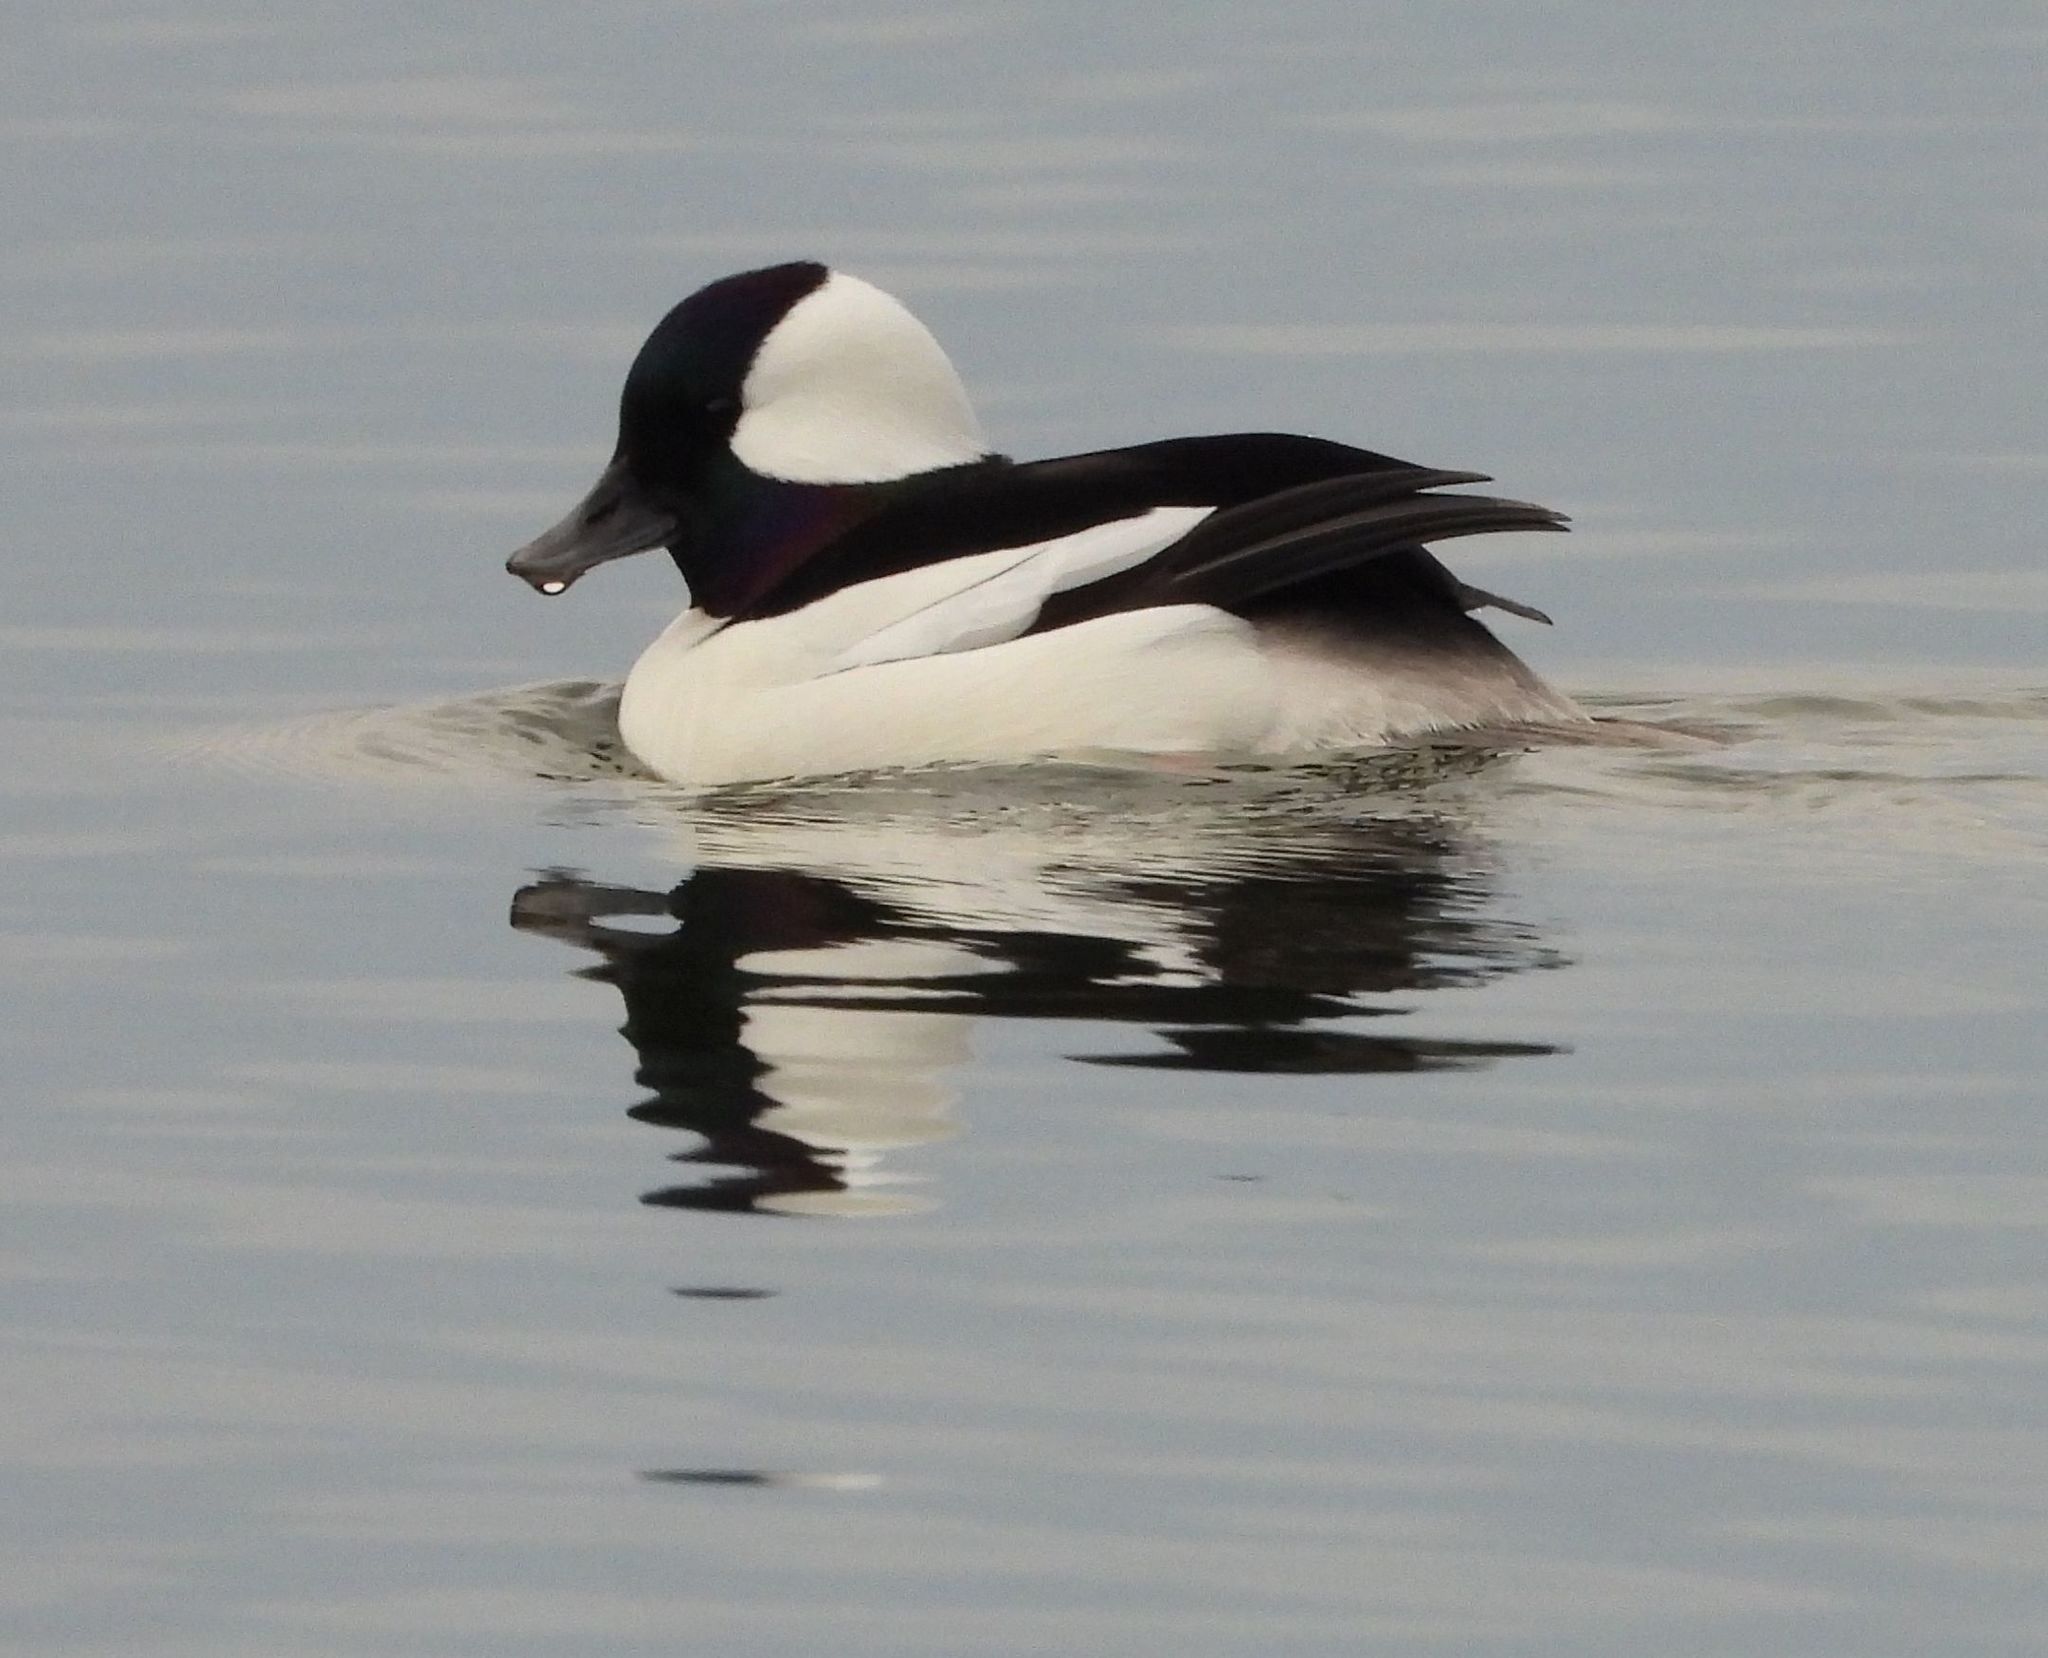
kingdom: Animalia
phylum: Chordata
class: Aves
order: Anseriformes
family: Anatidae
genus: Bucephala
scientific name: Bucephala albeola
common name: Bufflehead
